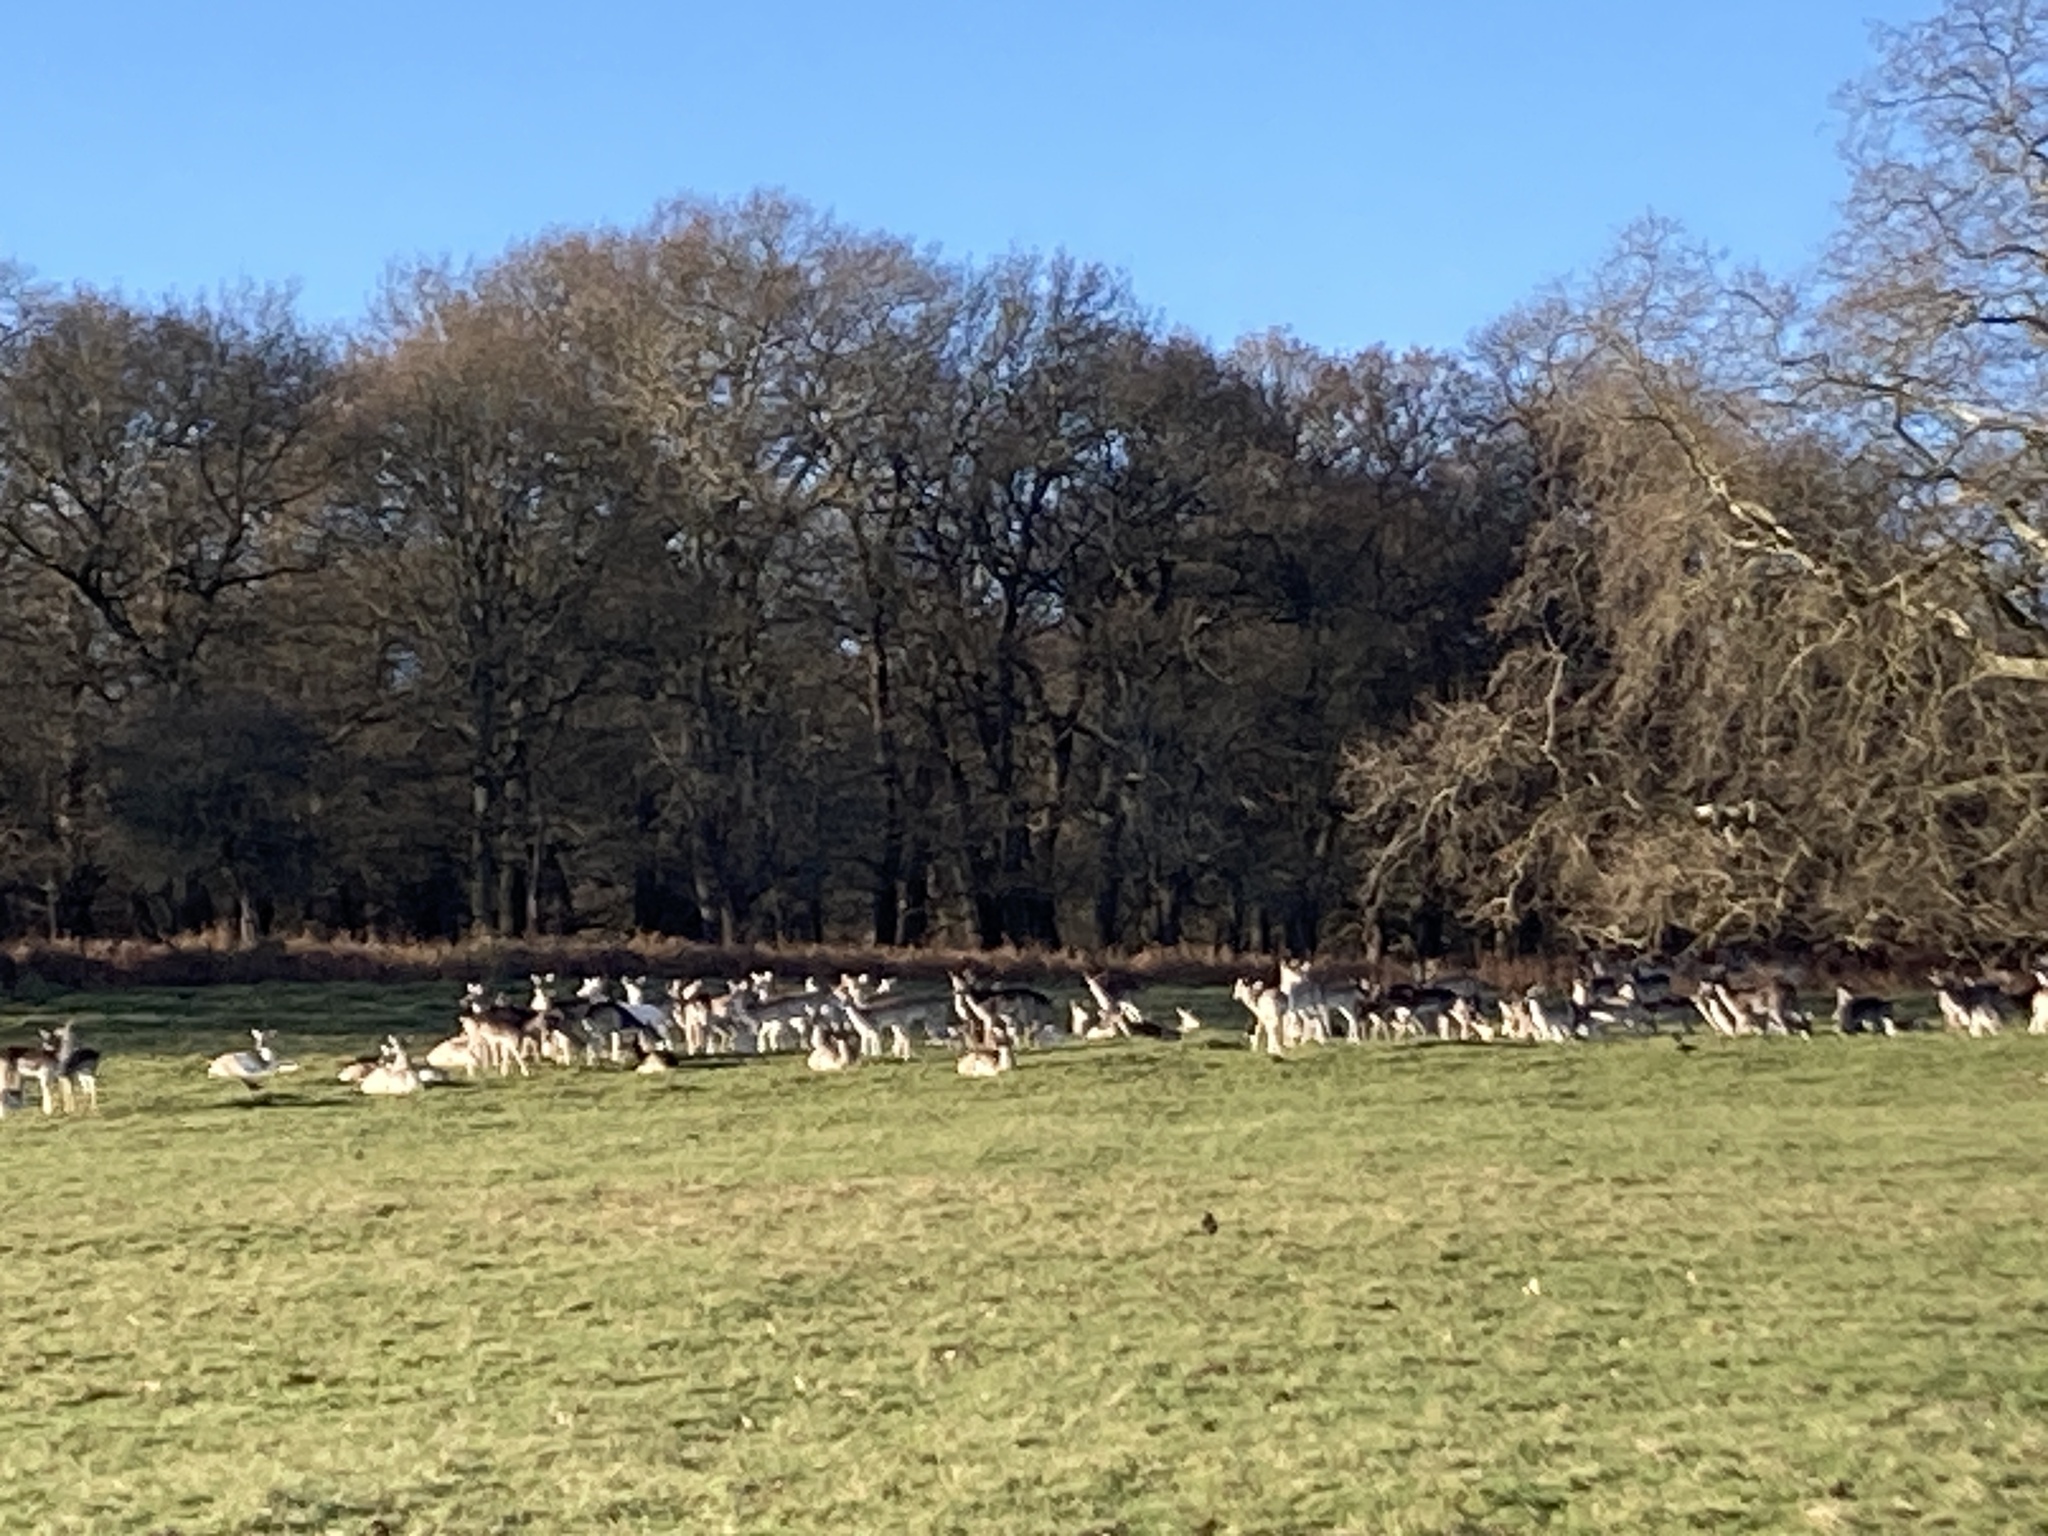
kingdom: Animalia
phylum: Chordata
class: Mammalia
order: Artiodactyla
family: Cervidae
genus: Dama
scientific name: Dama dama
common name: Fallow deer
